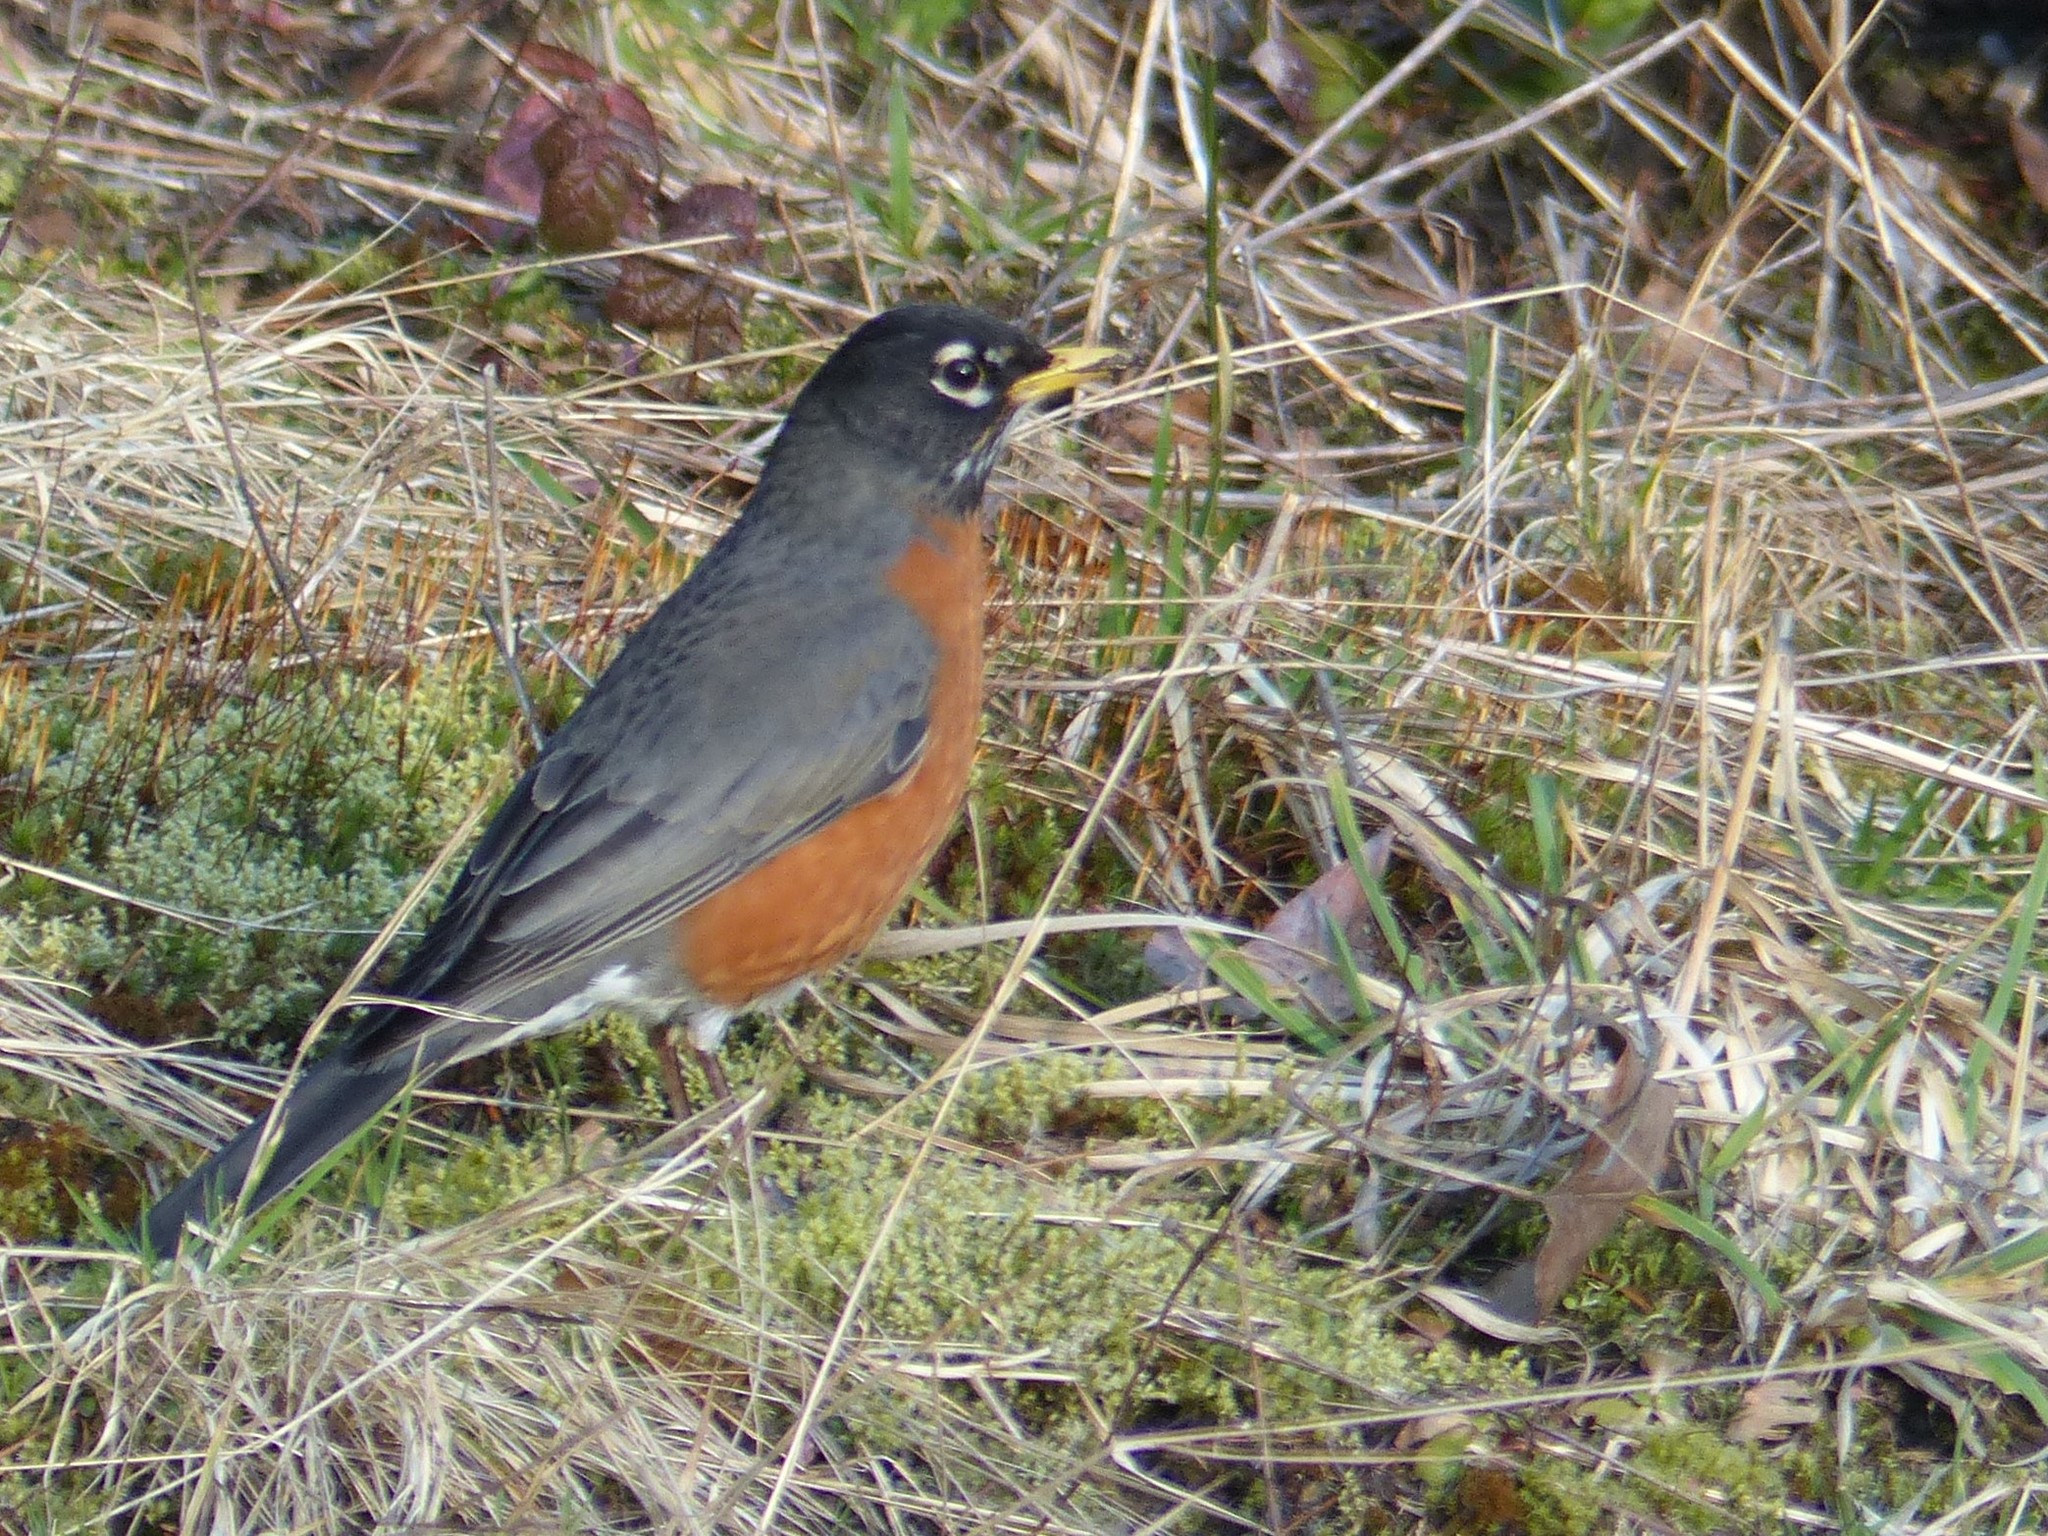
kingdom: Animalia
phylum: Chordata
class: Aves
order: Passeriformes
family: Turdidae
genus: Turdus
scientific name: Turdus migratorius
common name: American robin
